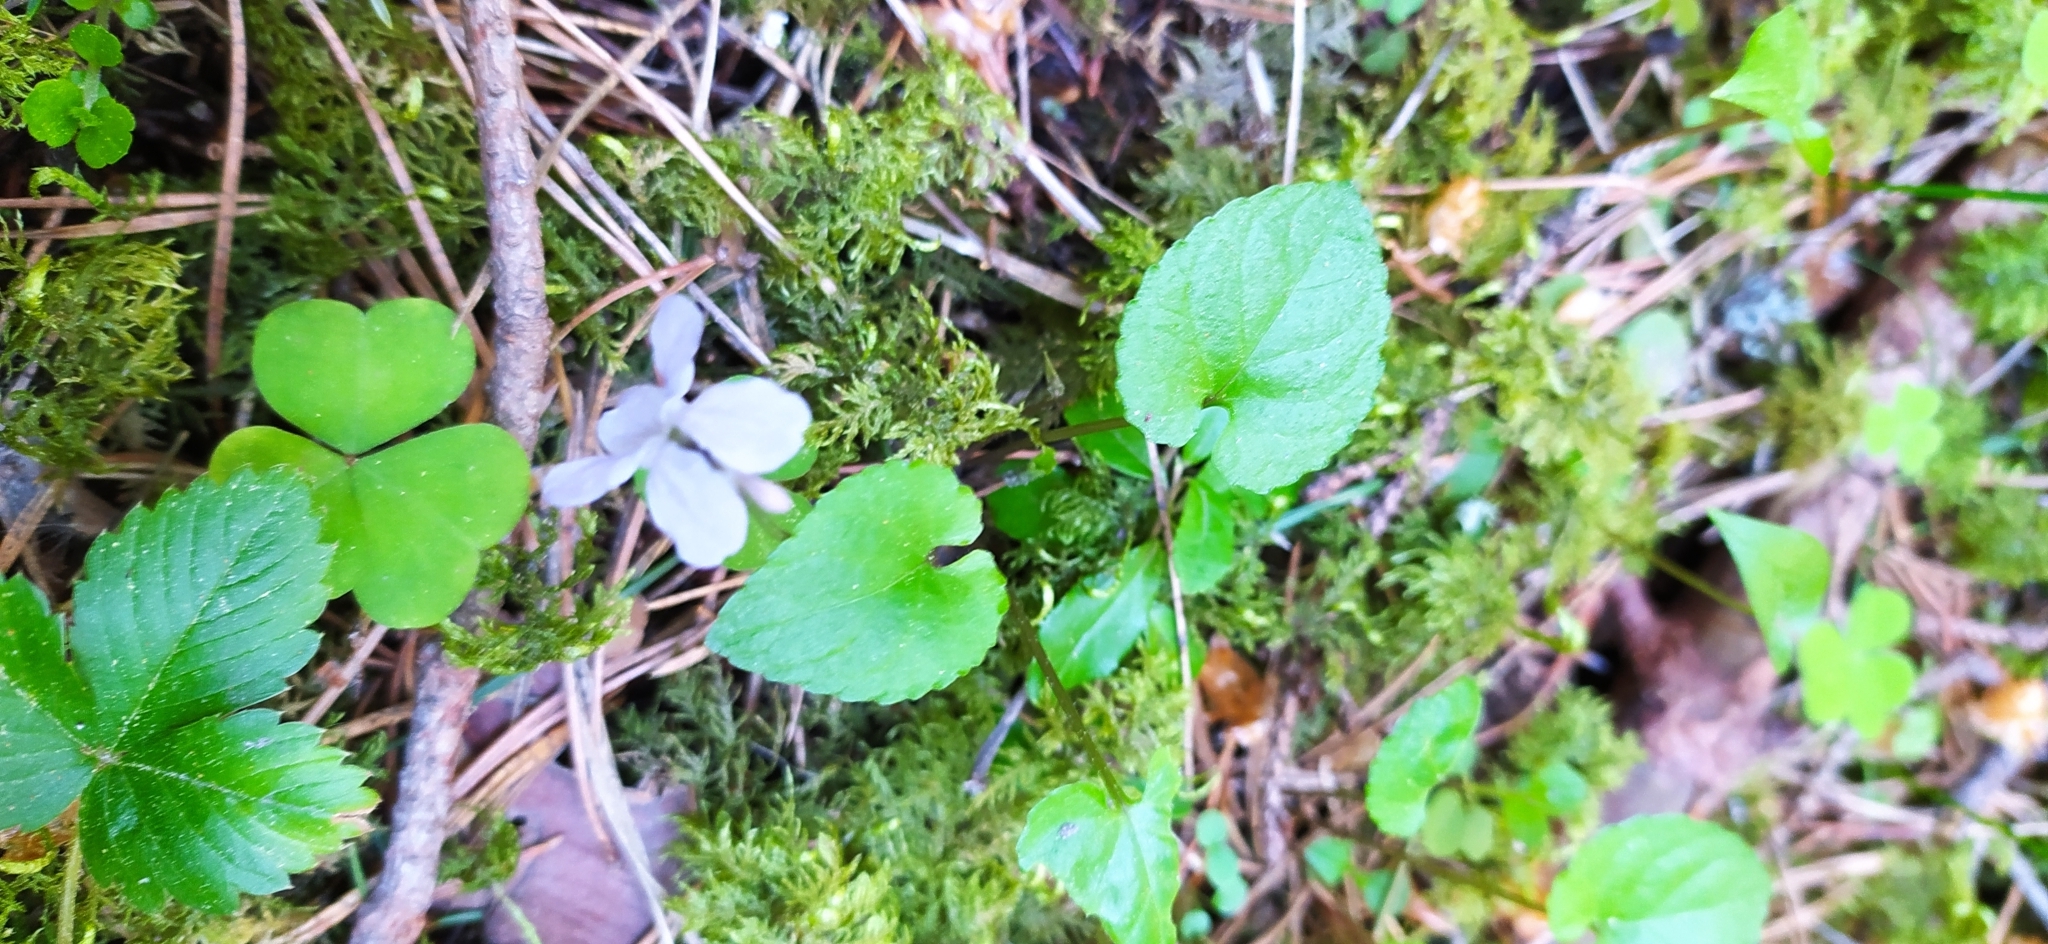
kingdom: Plantae
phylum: Tracheophyta
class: Magnoliopsida
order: Malpighiales
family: Violaceae
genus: Viola
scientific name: Viola selkirkii
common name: Selkirk's violet
